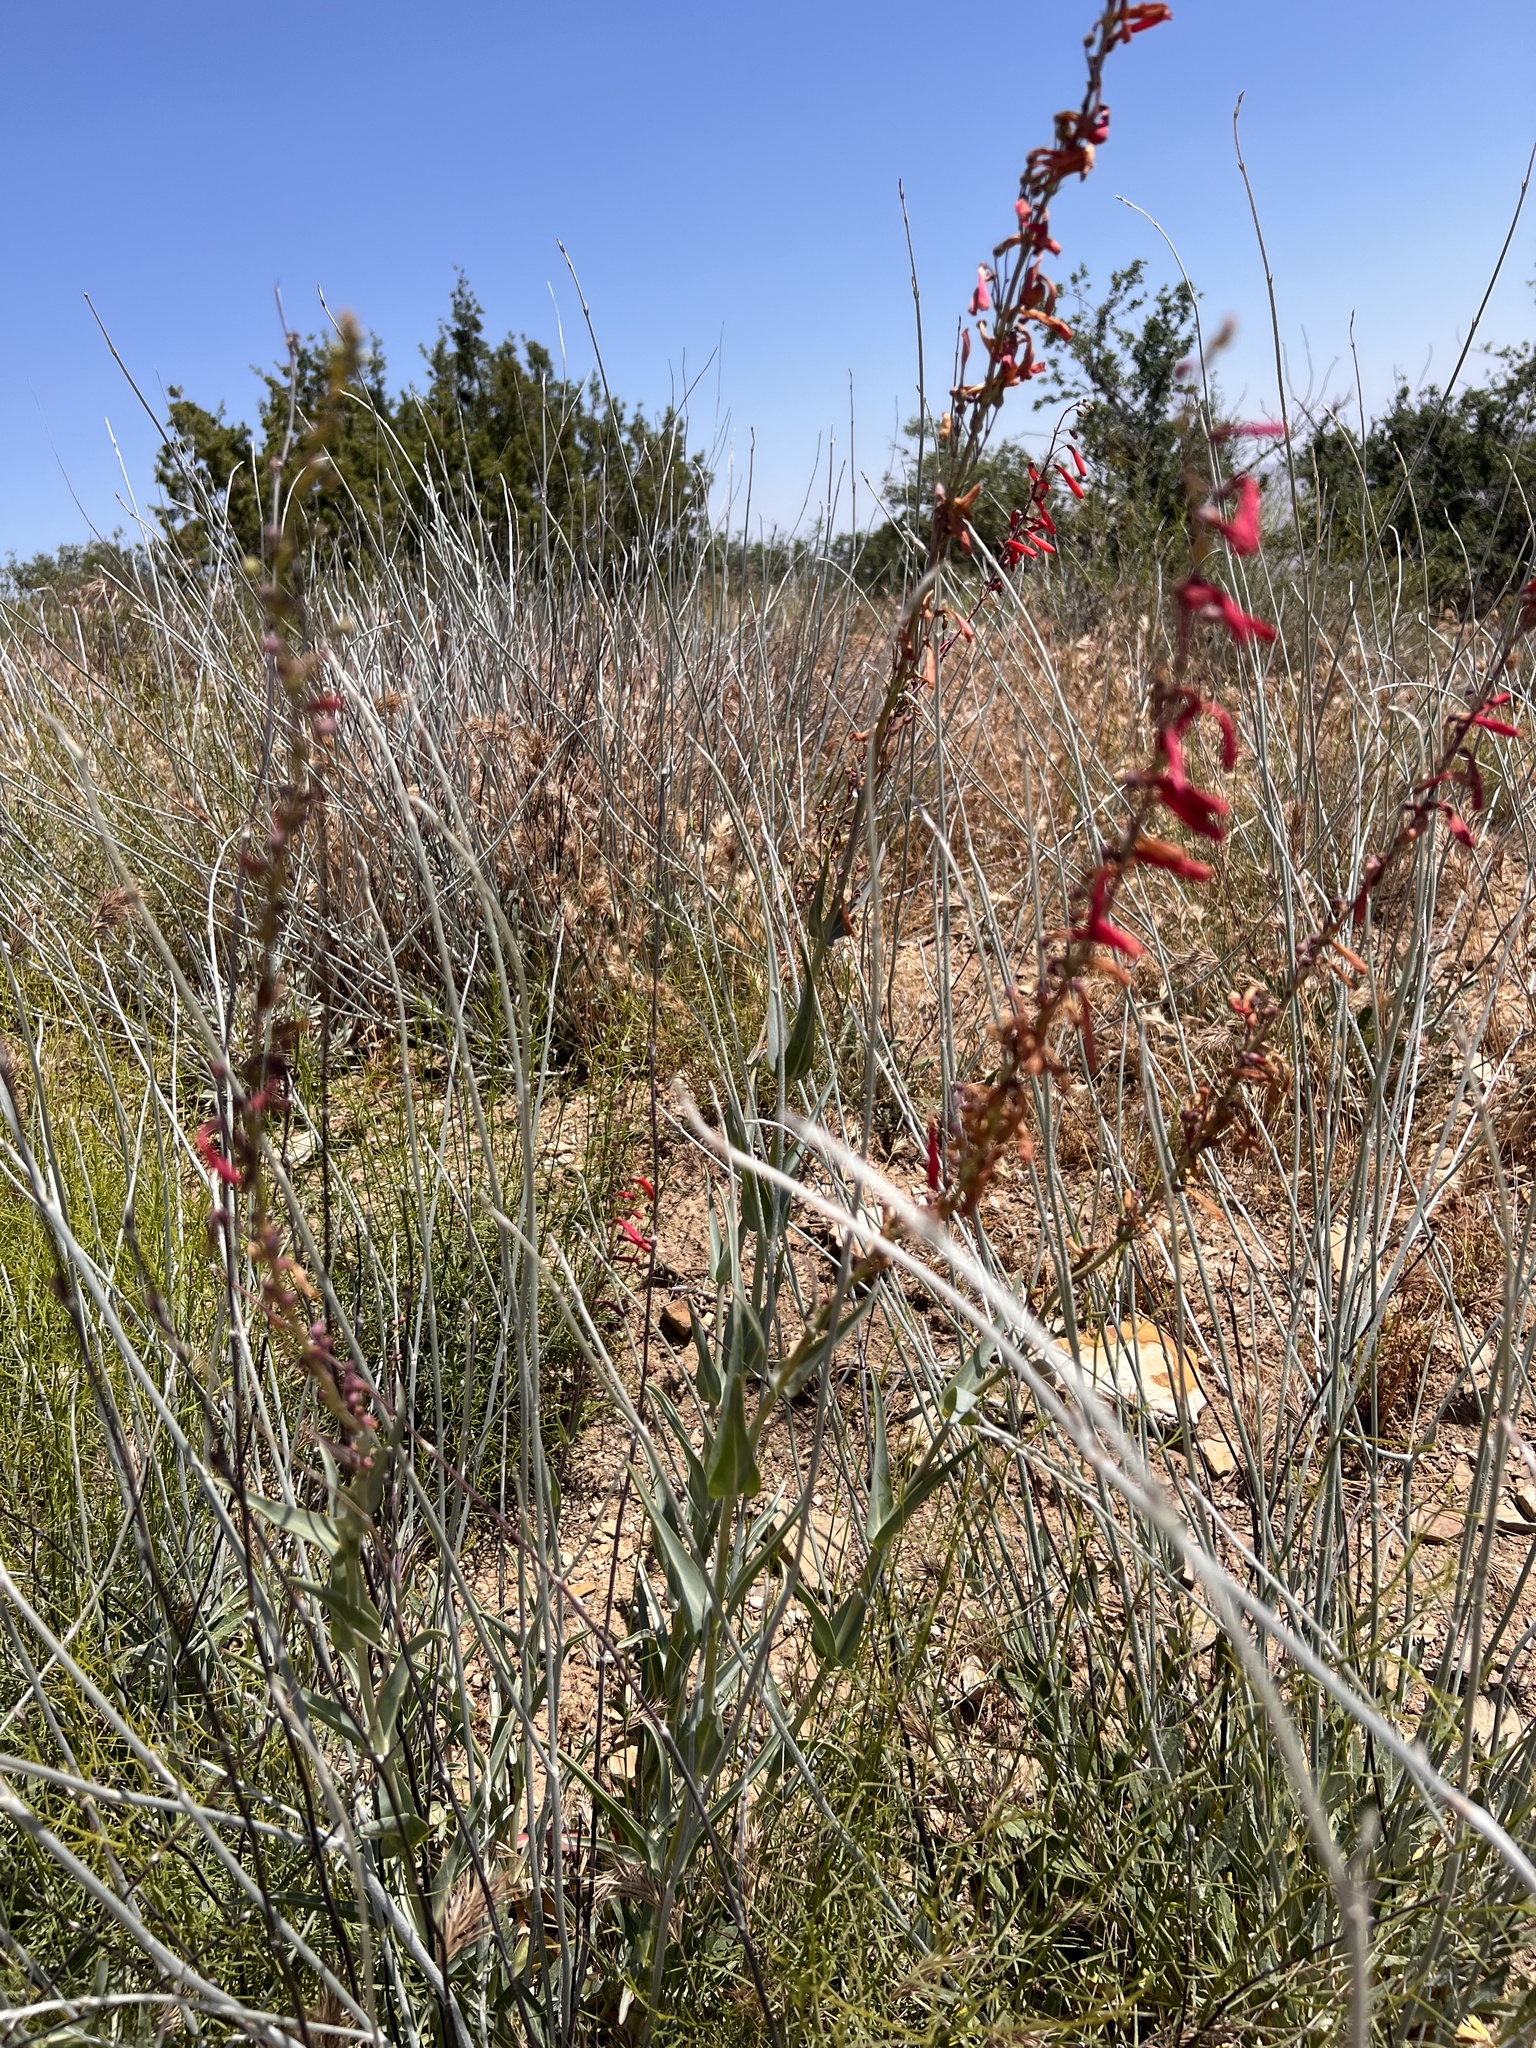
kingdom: Plantae
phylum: Tracheophyta
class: Magnoliopsida
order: Lamiales
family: Plantaginaceae
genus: Penstemon
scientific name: Penstemon centranthifolius
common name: Scarlet bugler
